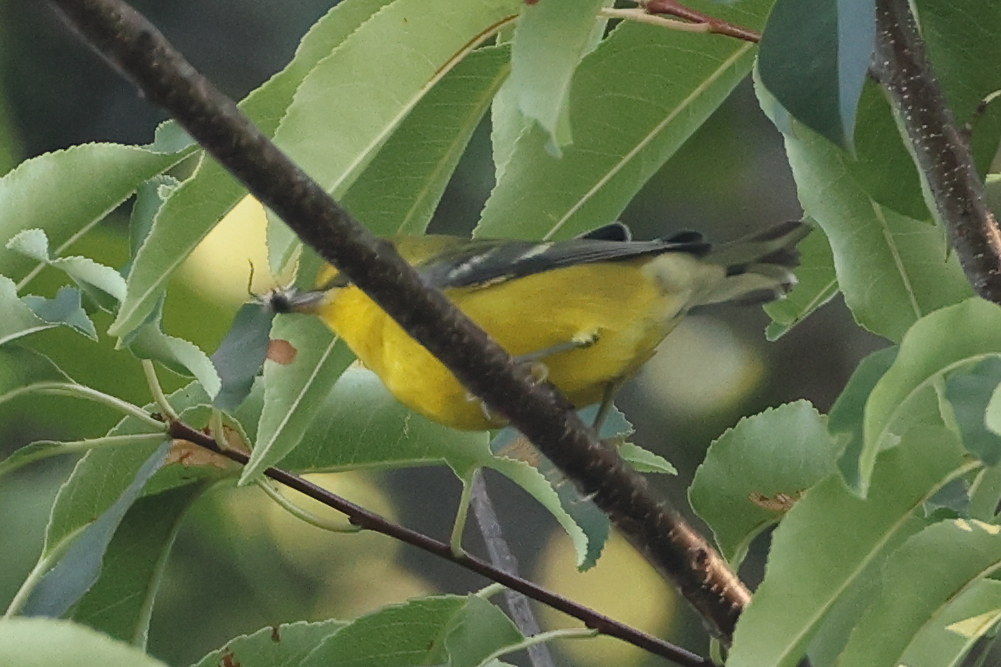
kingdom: Animalia
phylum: Chordata
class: Aves
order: Passeriformes
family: Parulidae
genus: Vermivora
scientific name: Vermivora cyanoptera
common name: Blue-winged warbler
